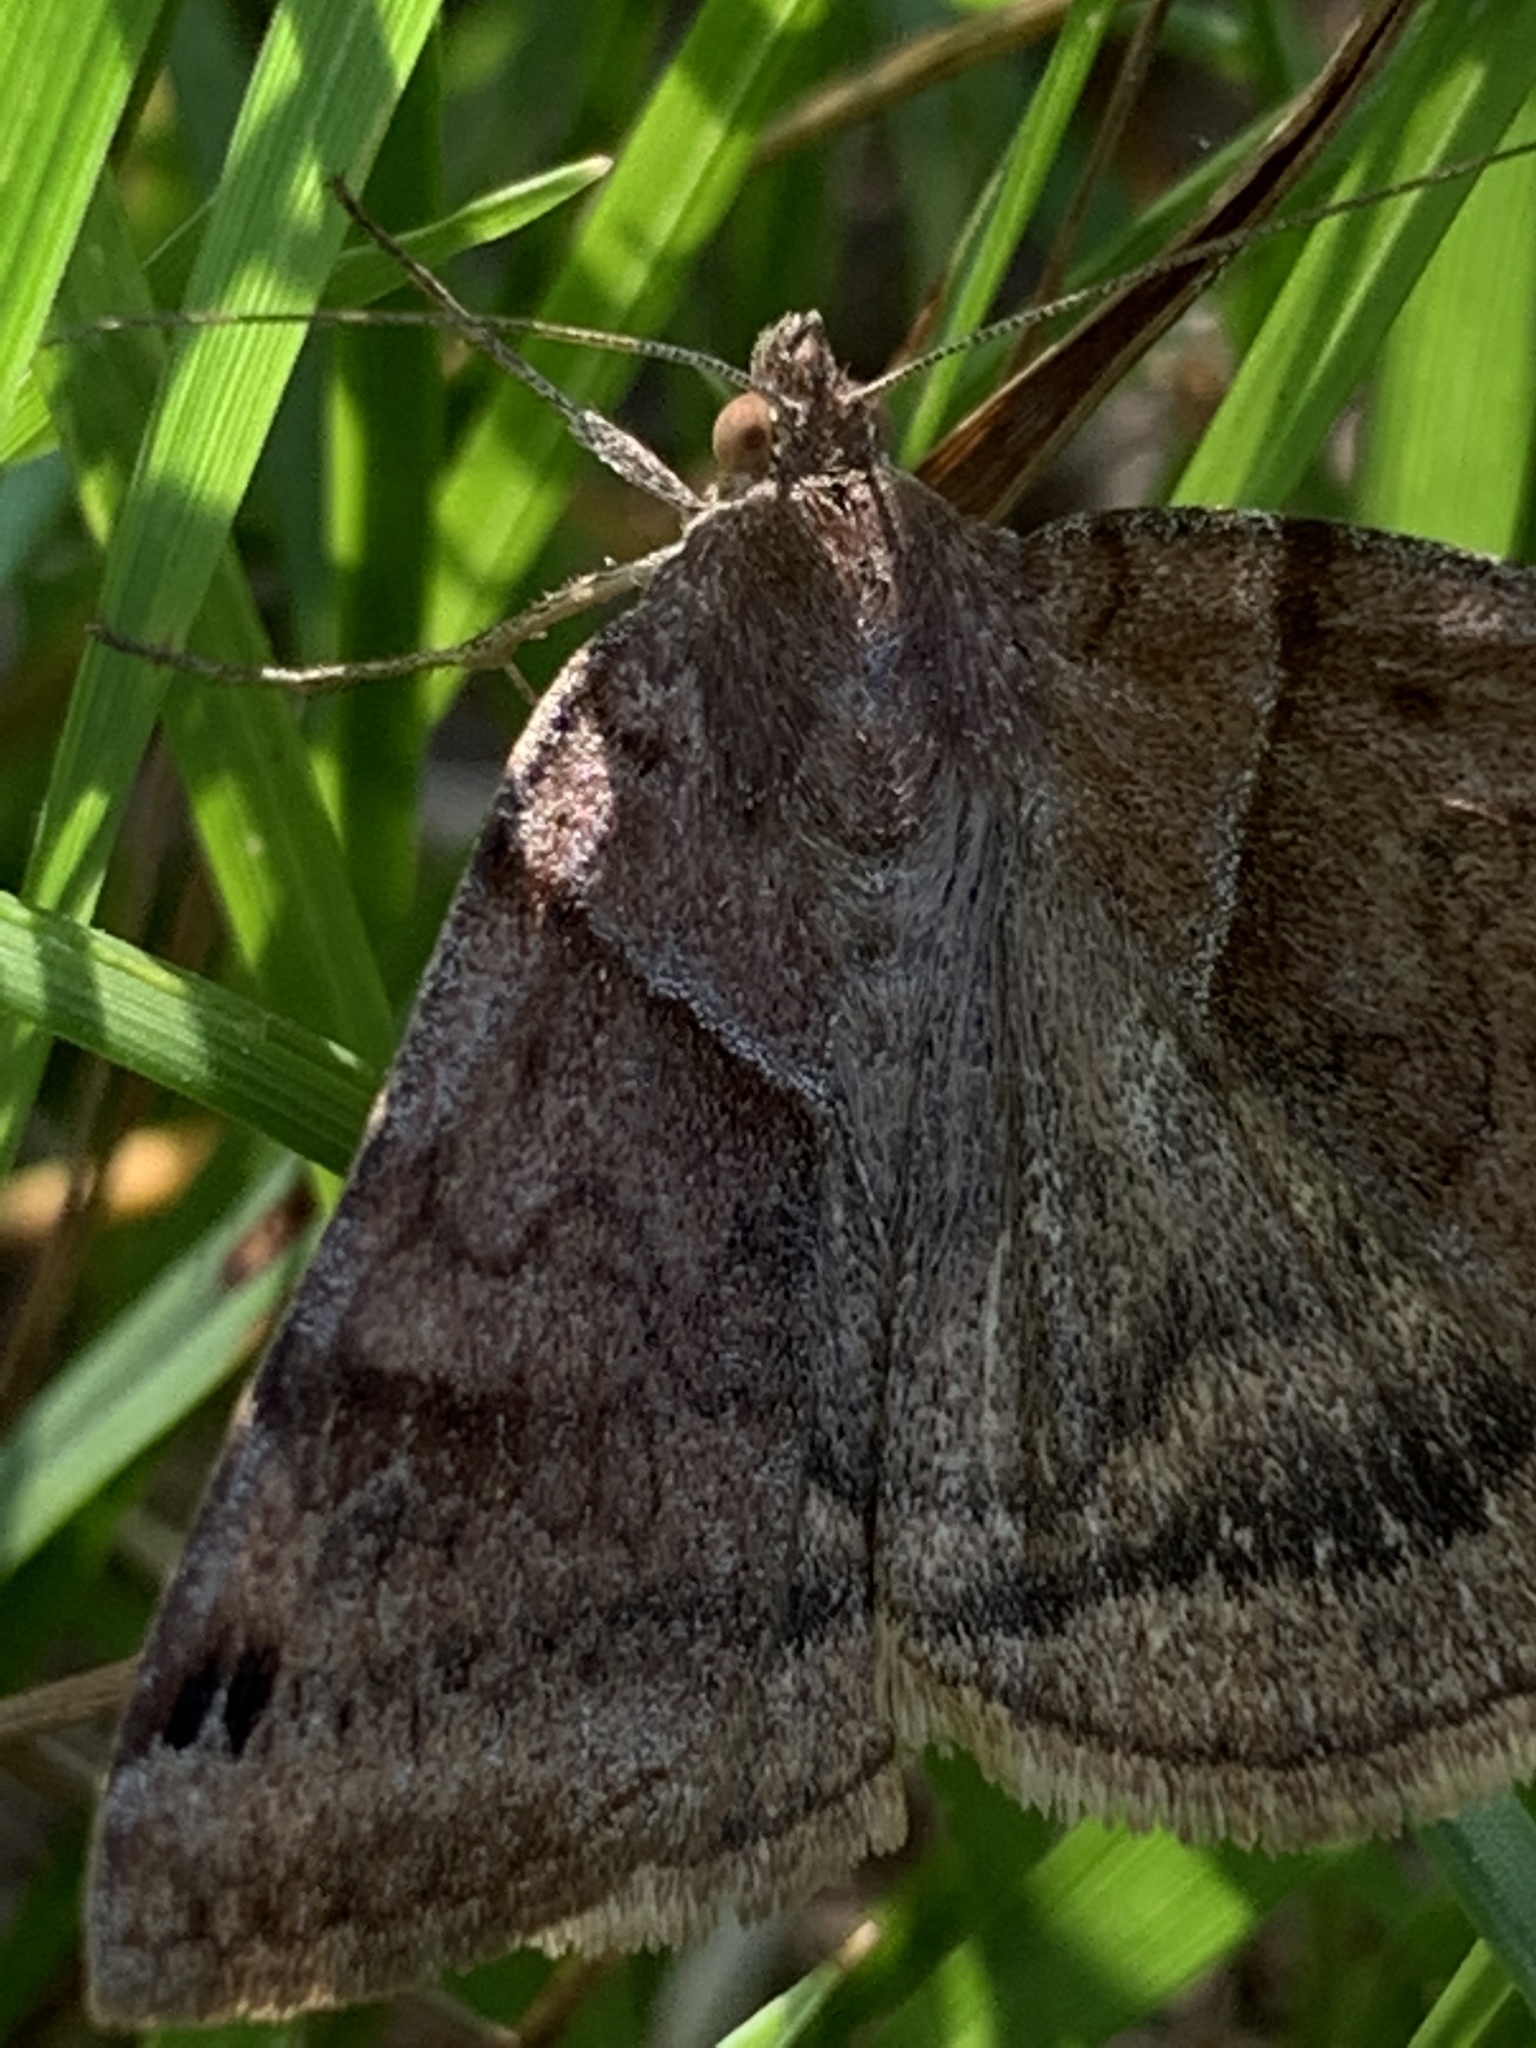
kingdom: Animalia
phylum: Arthropoda
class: Insecta
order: Lepidoptera
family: Erebidae
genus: Caenurgina
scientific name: Caenurgina crassiuscula
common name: Double-barred
